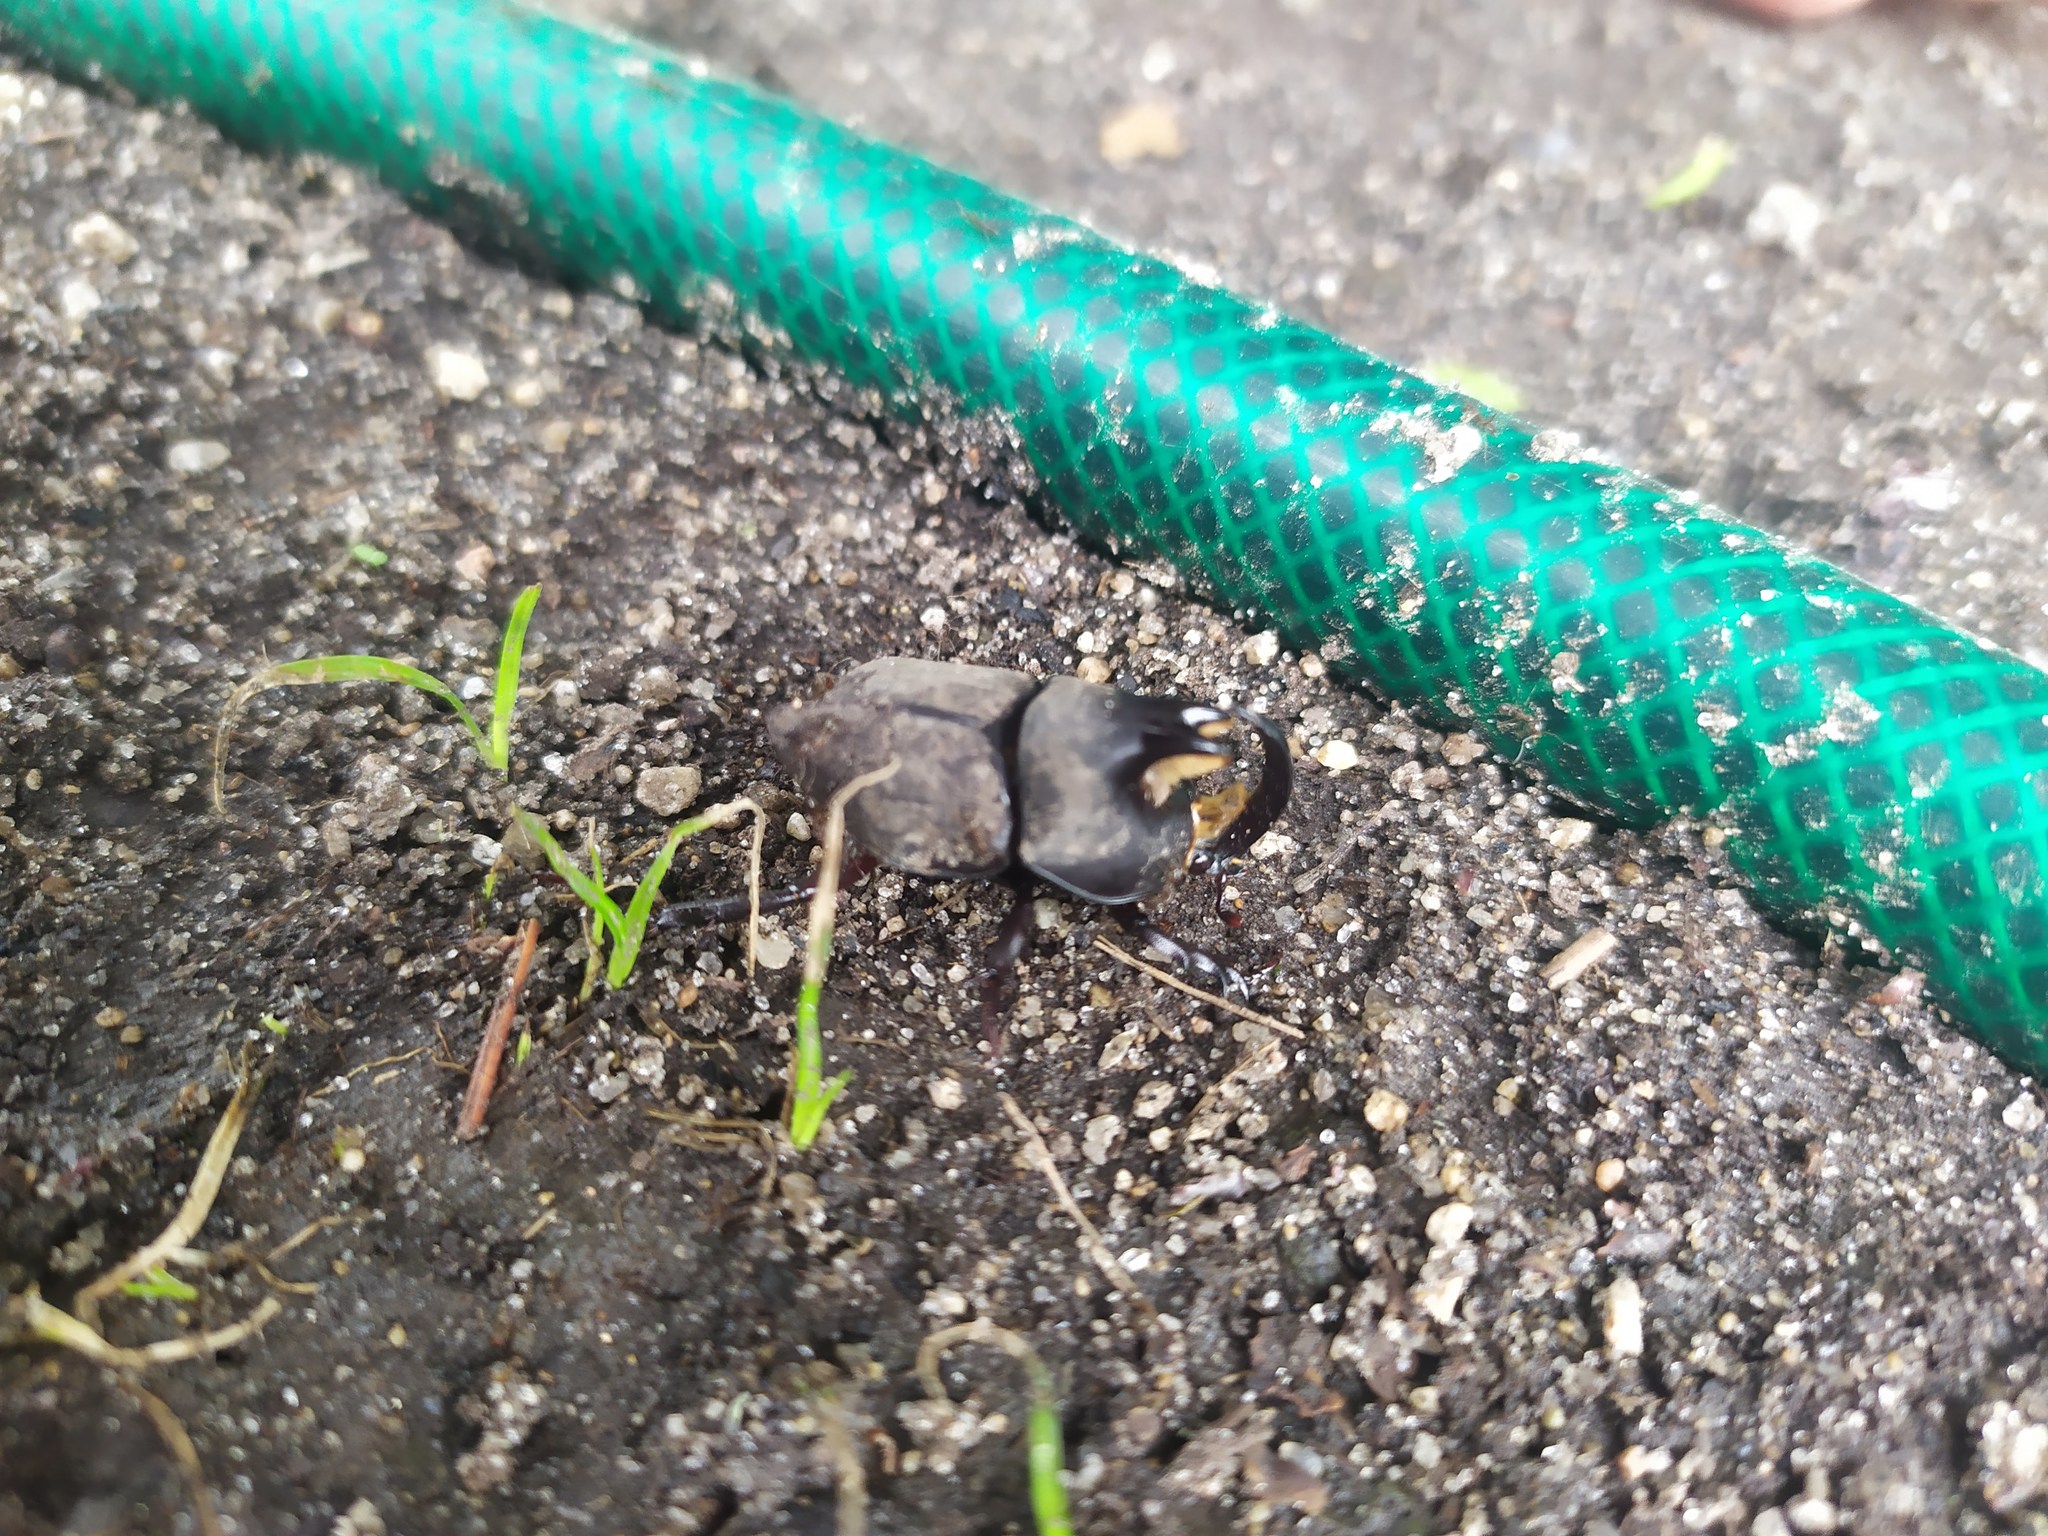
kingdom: Animalia
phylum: Arthropoda
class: Insecta
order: Coleoptera
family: Scarabaeidae
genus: Diloboderus
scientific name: Diloboderus abderus
